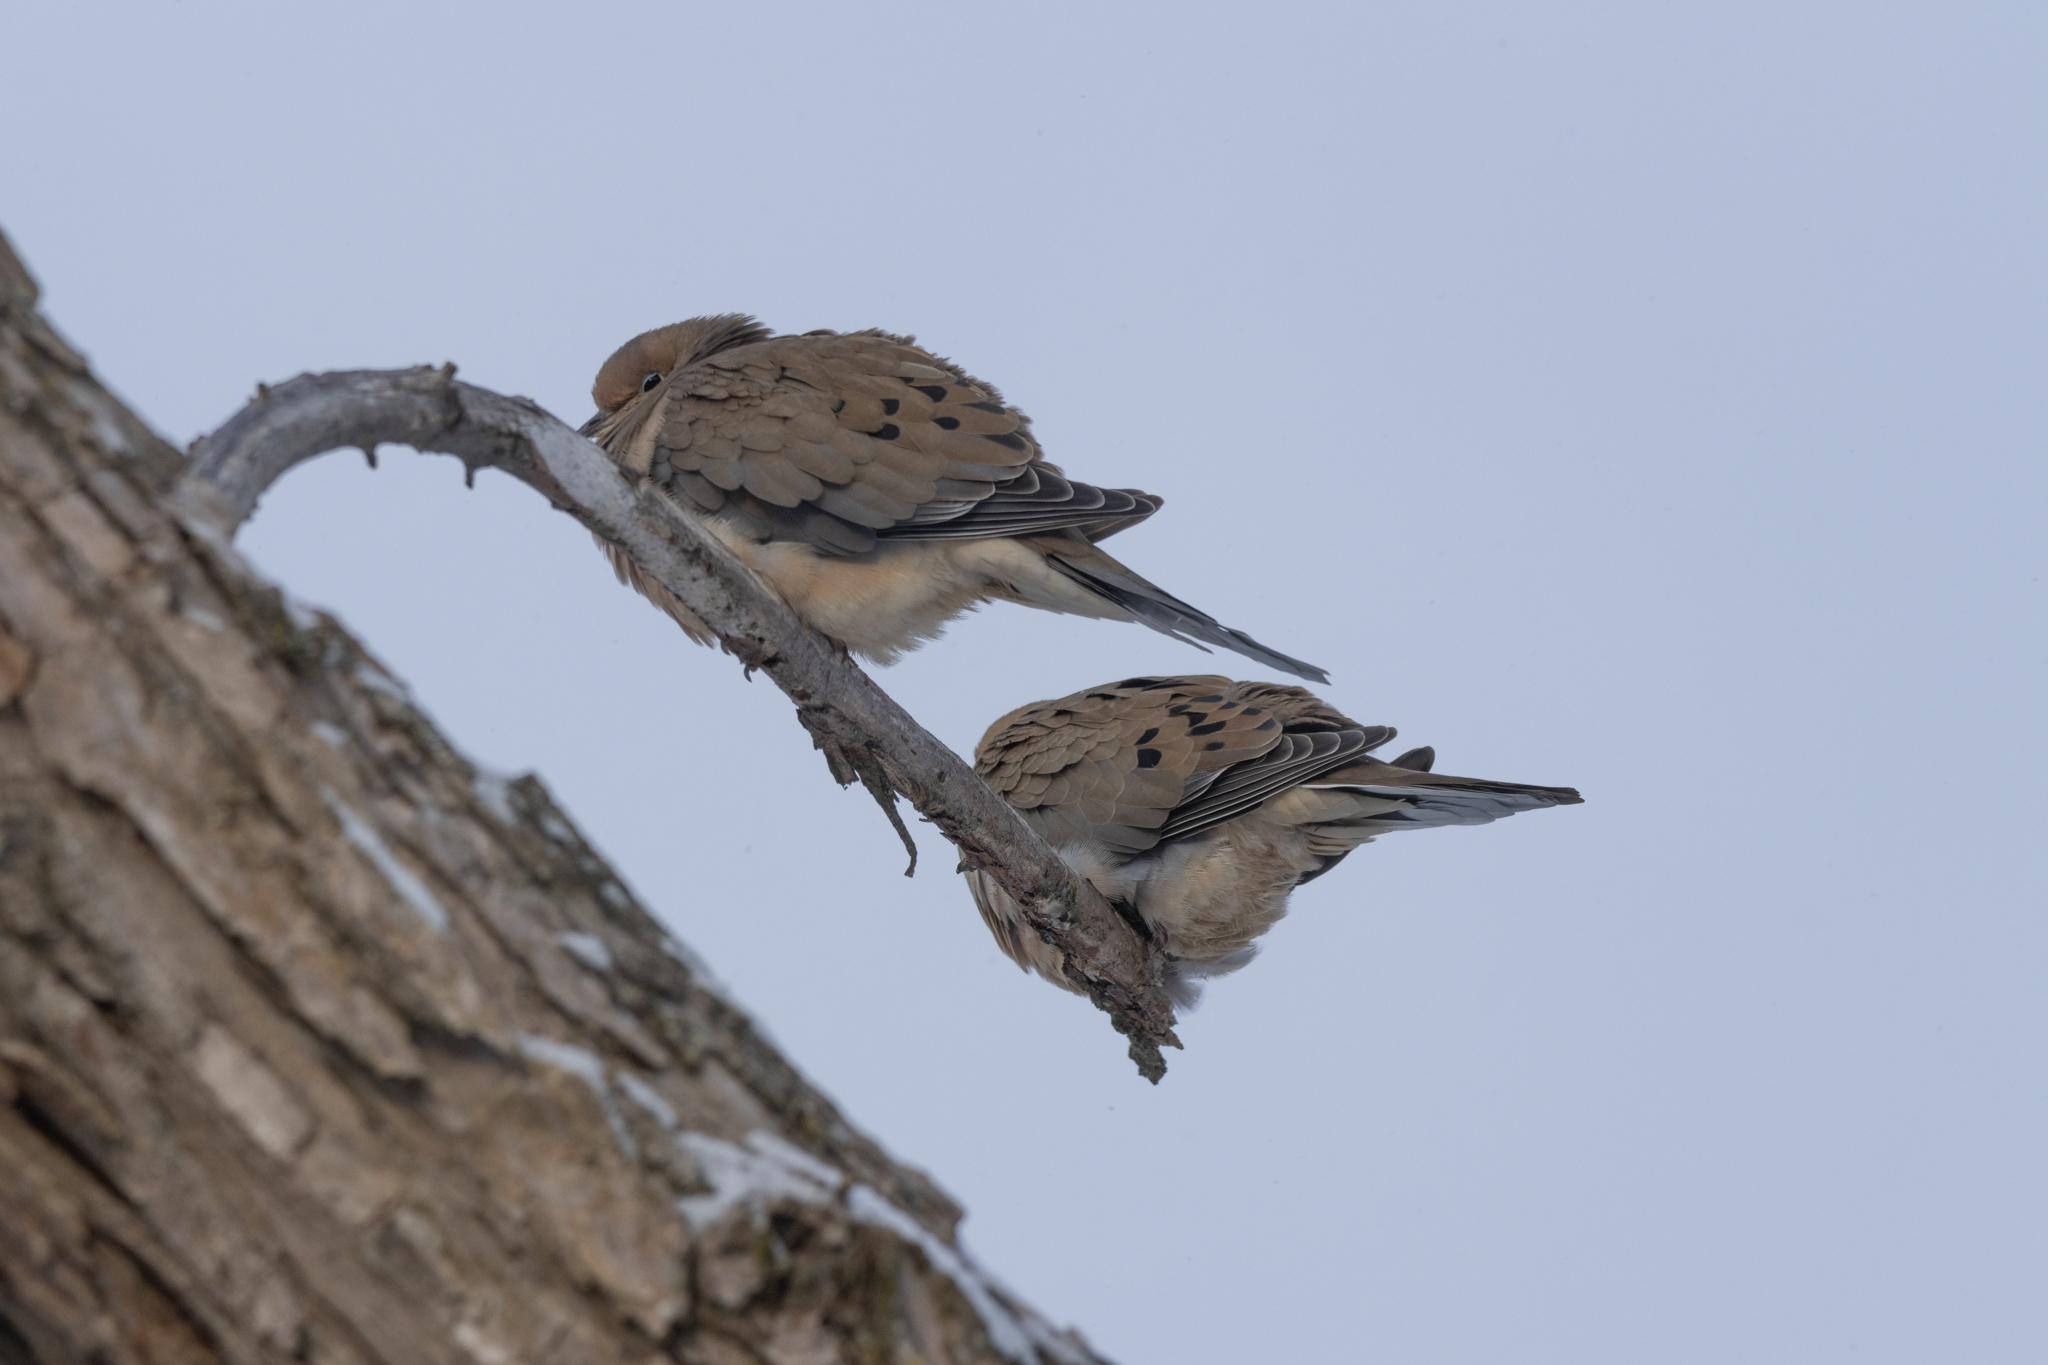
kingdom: Animalia
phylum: Chordata
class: Aves
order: Columbiformes
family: Columbidae
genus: Zenaida
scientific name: Zenaida macroura
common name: Mourning dove
